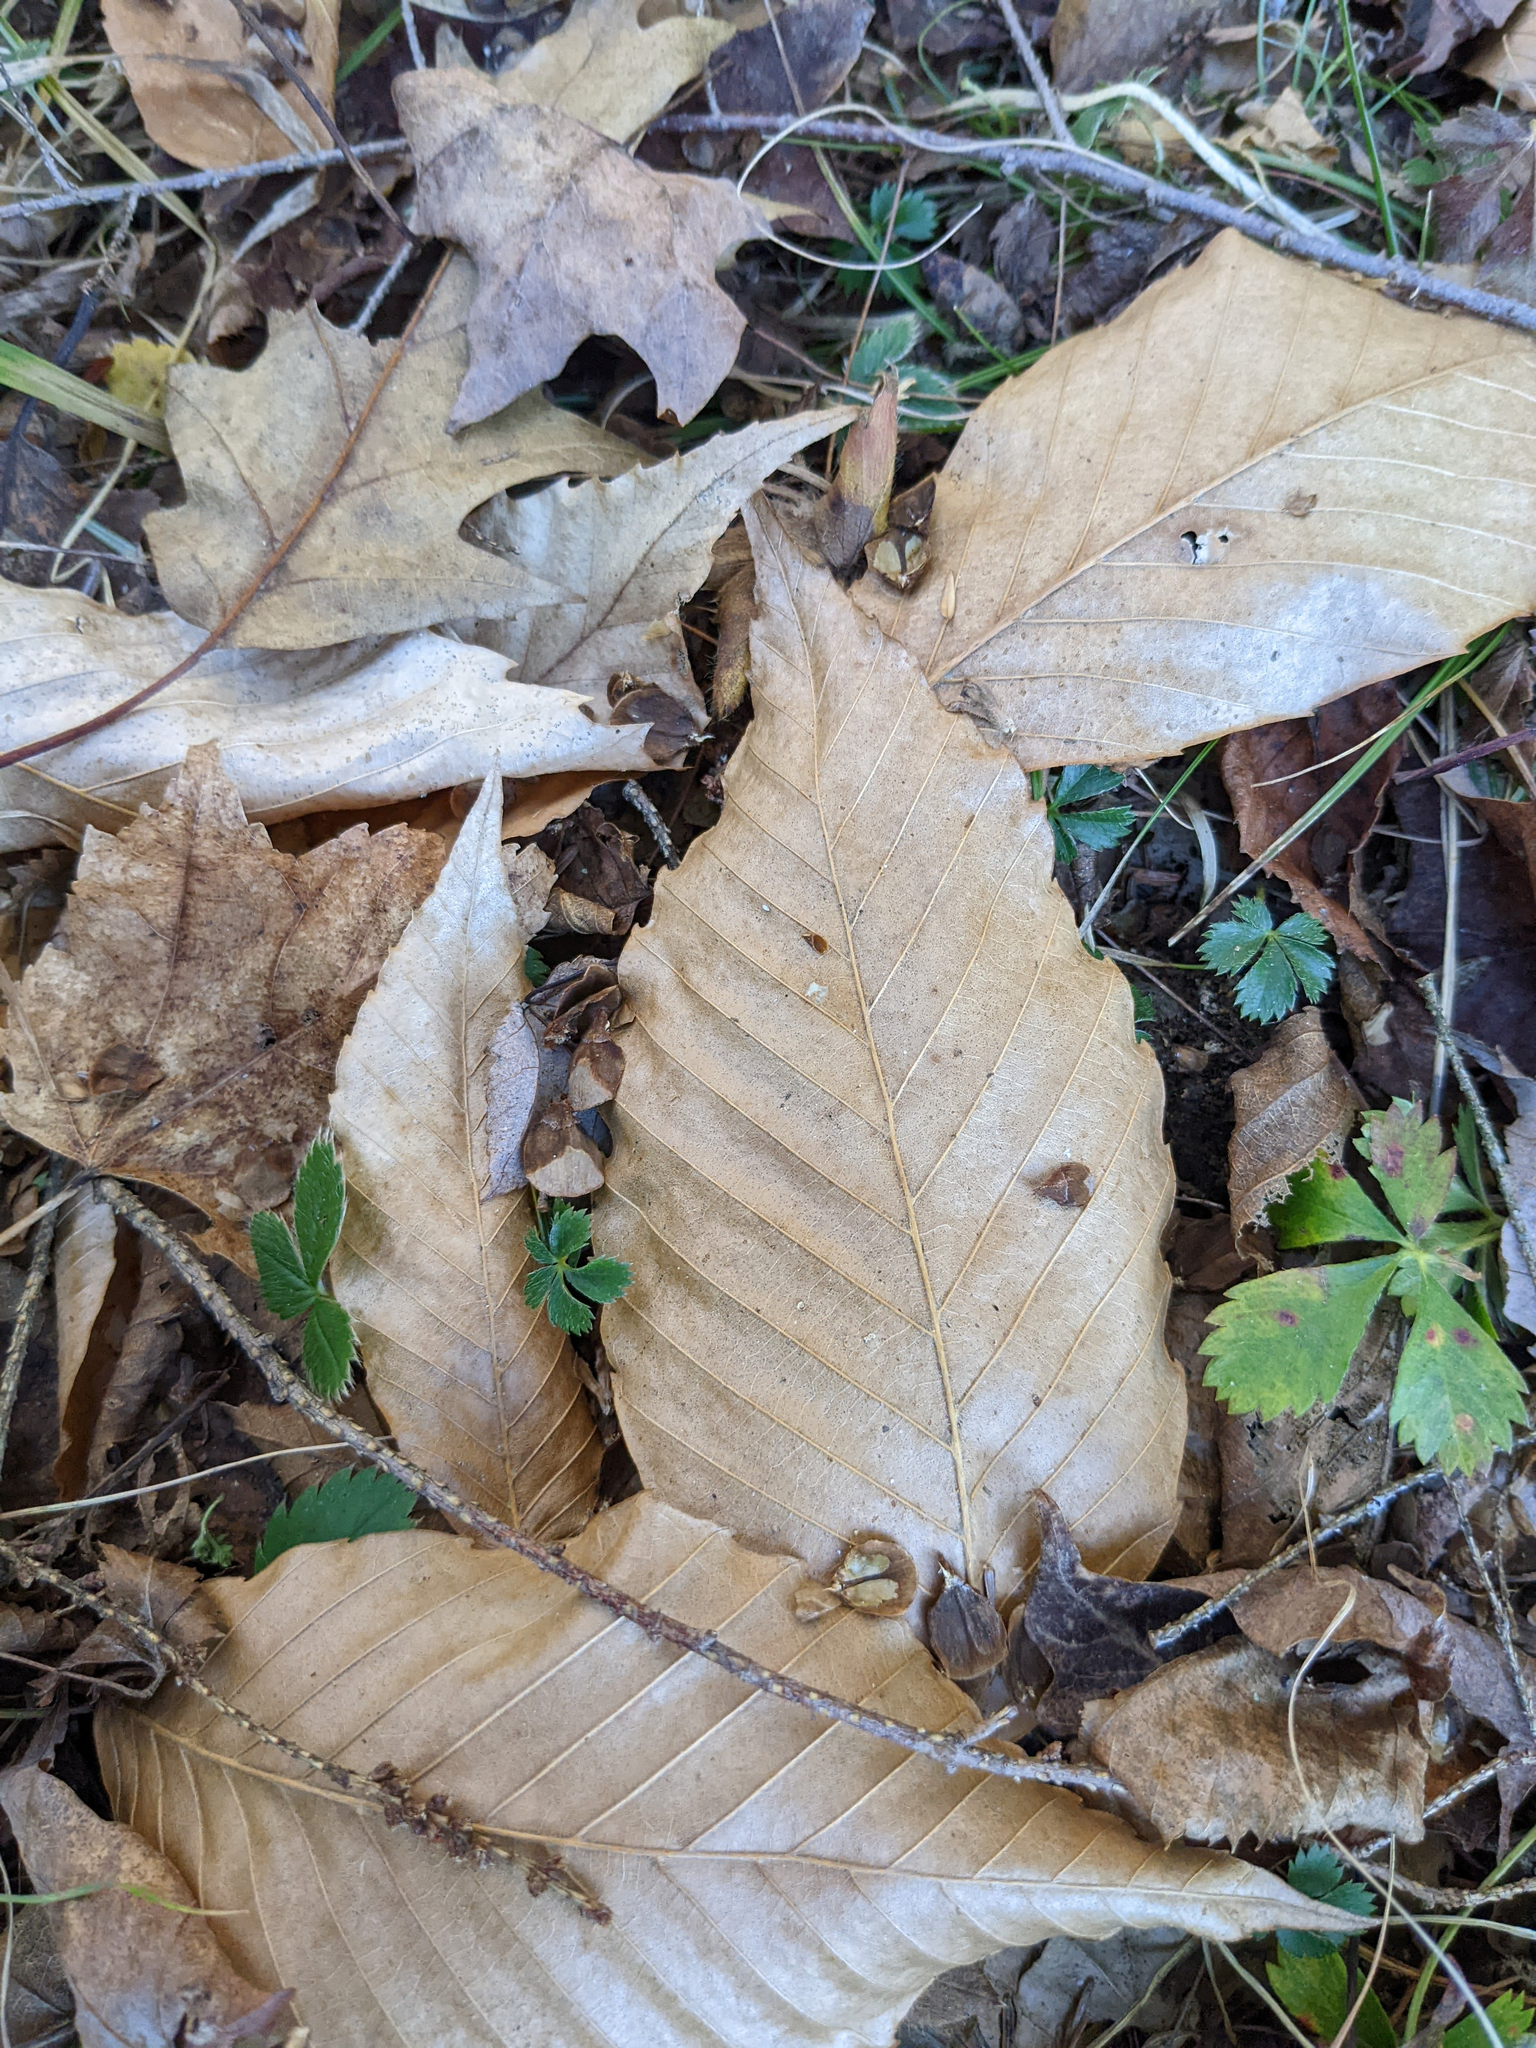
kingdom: Plantae
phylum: Tracheophyta
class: Magnoliopsida
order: Fagales
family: Fagaceae
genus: Fagus
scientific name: Fagus grandifolia
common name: American beech
